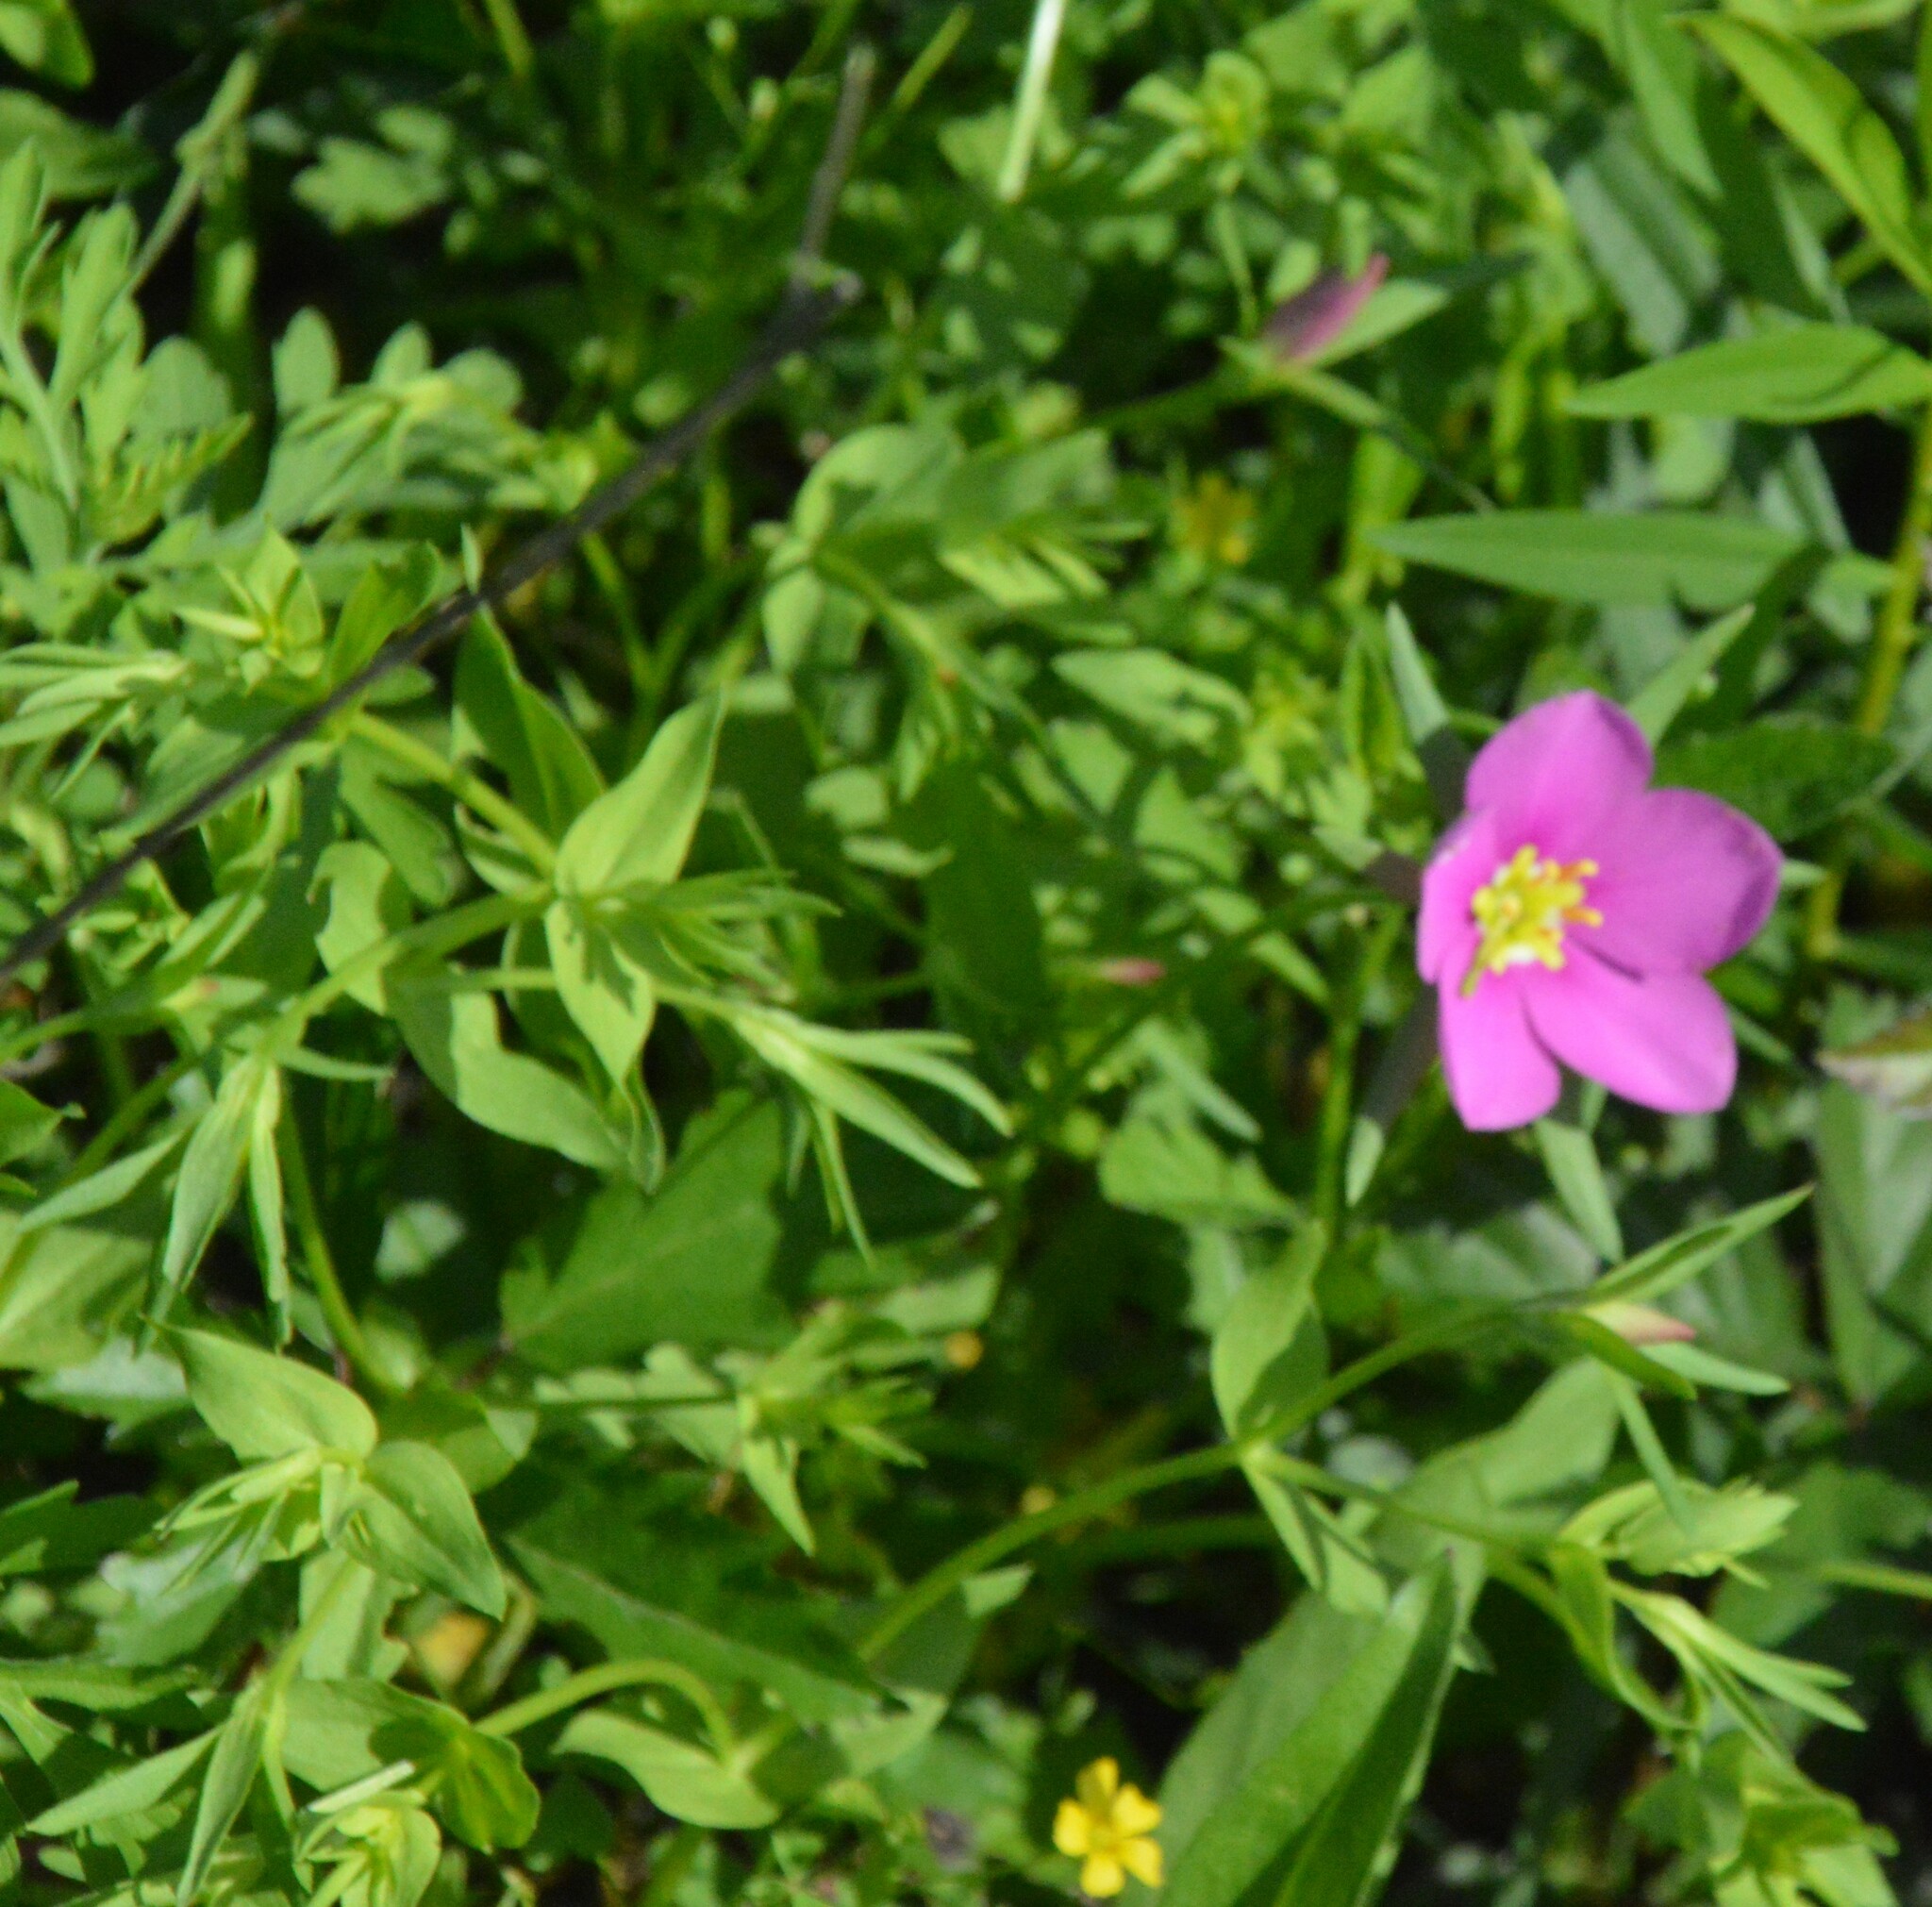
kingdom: Plantae
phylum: Tracheophyta
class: Magnoliopsida
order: Gentianales
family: Gentianaceae
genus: Sabatia
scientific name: Sabatia campestris
